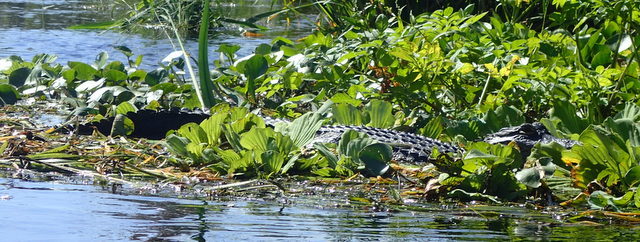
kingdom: Animalia
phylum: Chordata
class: Crocodylia
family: Alligatoridae
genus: Alligator
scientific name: Alligator mississippiensis
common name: American alligator
